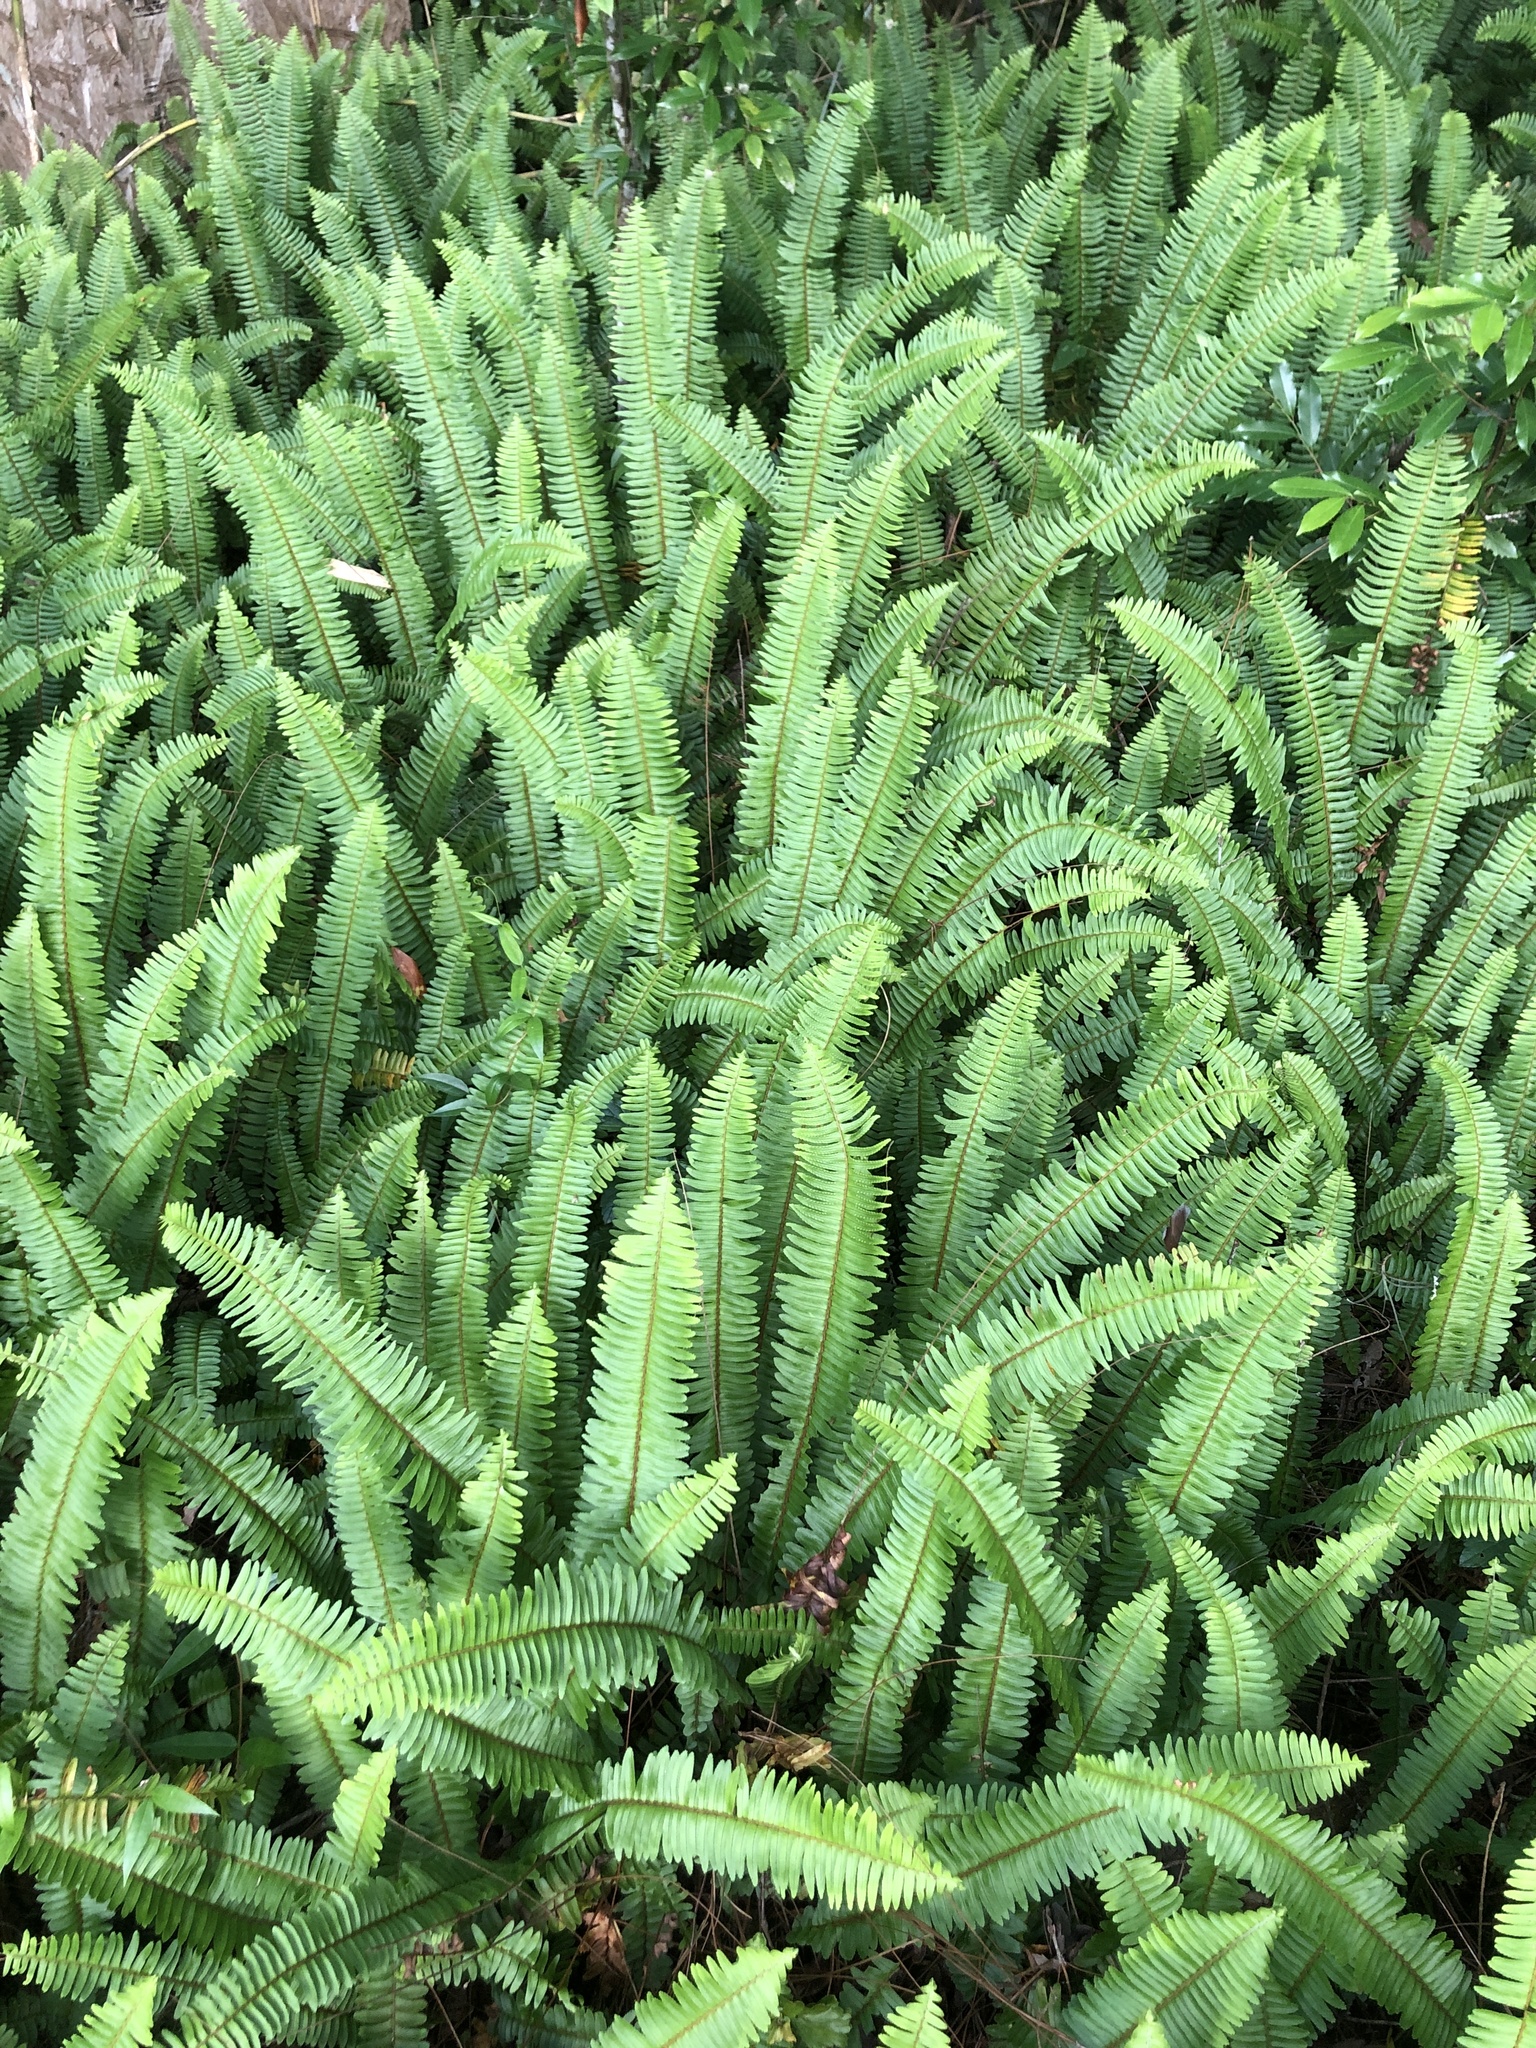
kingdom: Plantae
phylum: Tracheophyta
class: Polypodiopsida
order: Polypodiales
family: Nephrolepidaceae
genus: Nephrolepis
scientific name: Nephrolepis cordifolia
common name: Narrow swordfern
